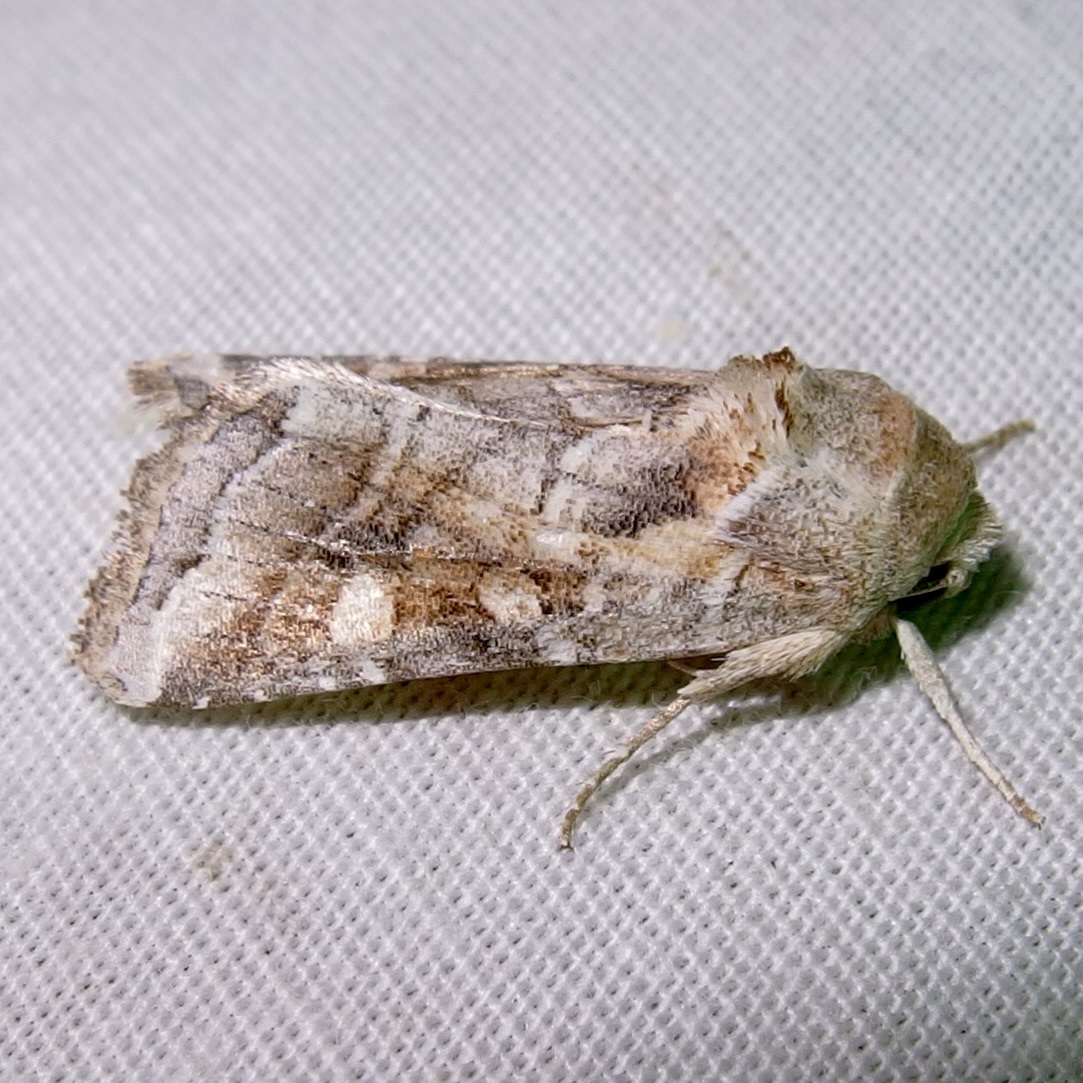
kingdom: Animalia
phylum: Arthropoda
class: Insecta
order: Lepidoptera
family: Noctuidae
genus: Lacinipolia
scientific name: Lacinipolia triplehorni
